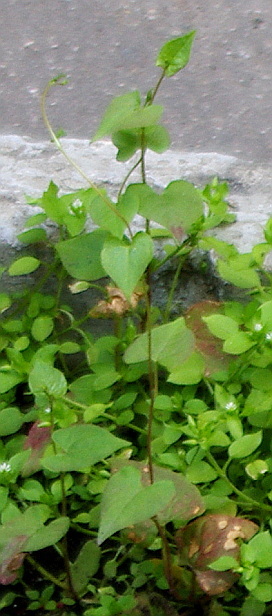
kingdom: Plantae
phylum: Tracheophyta
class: Magnoliopsida
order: Caryophyllales
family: Polygonaceae
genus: Fallopia
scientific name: Fallopia convolvulus
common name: Black bindweed
